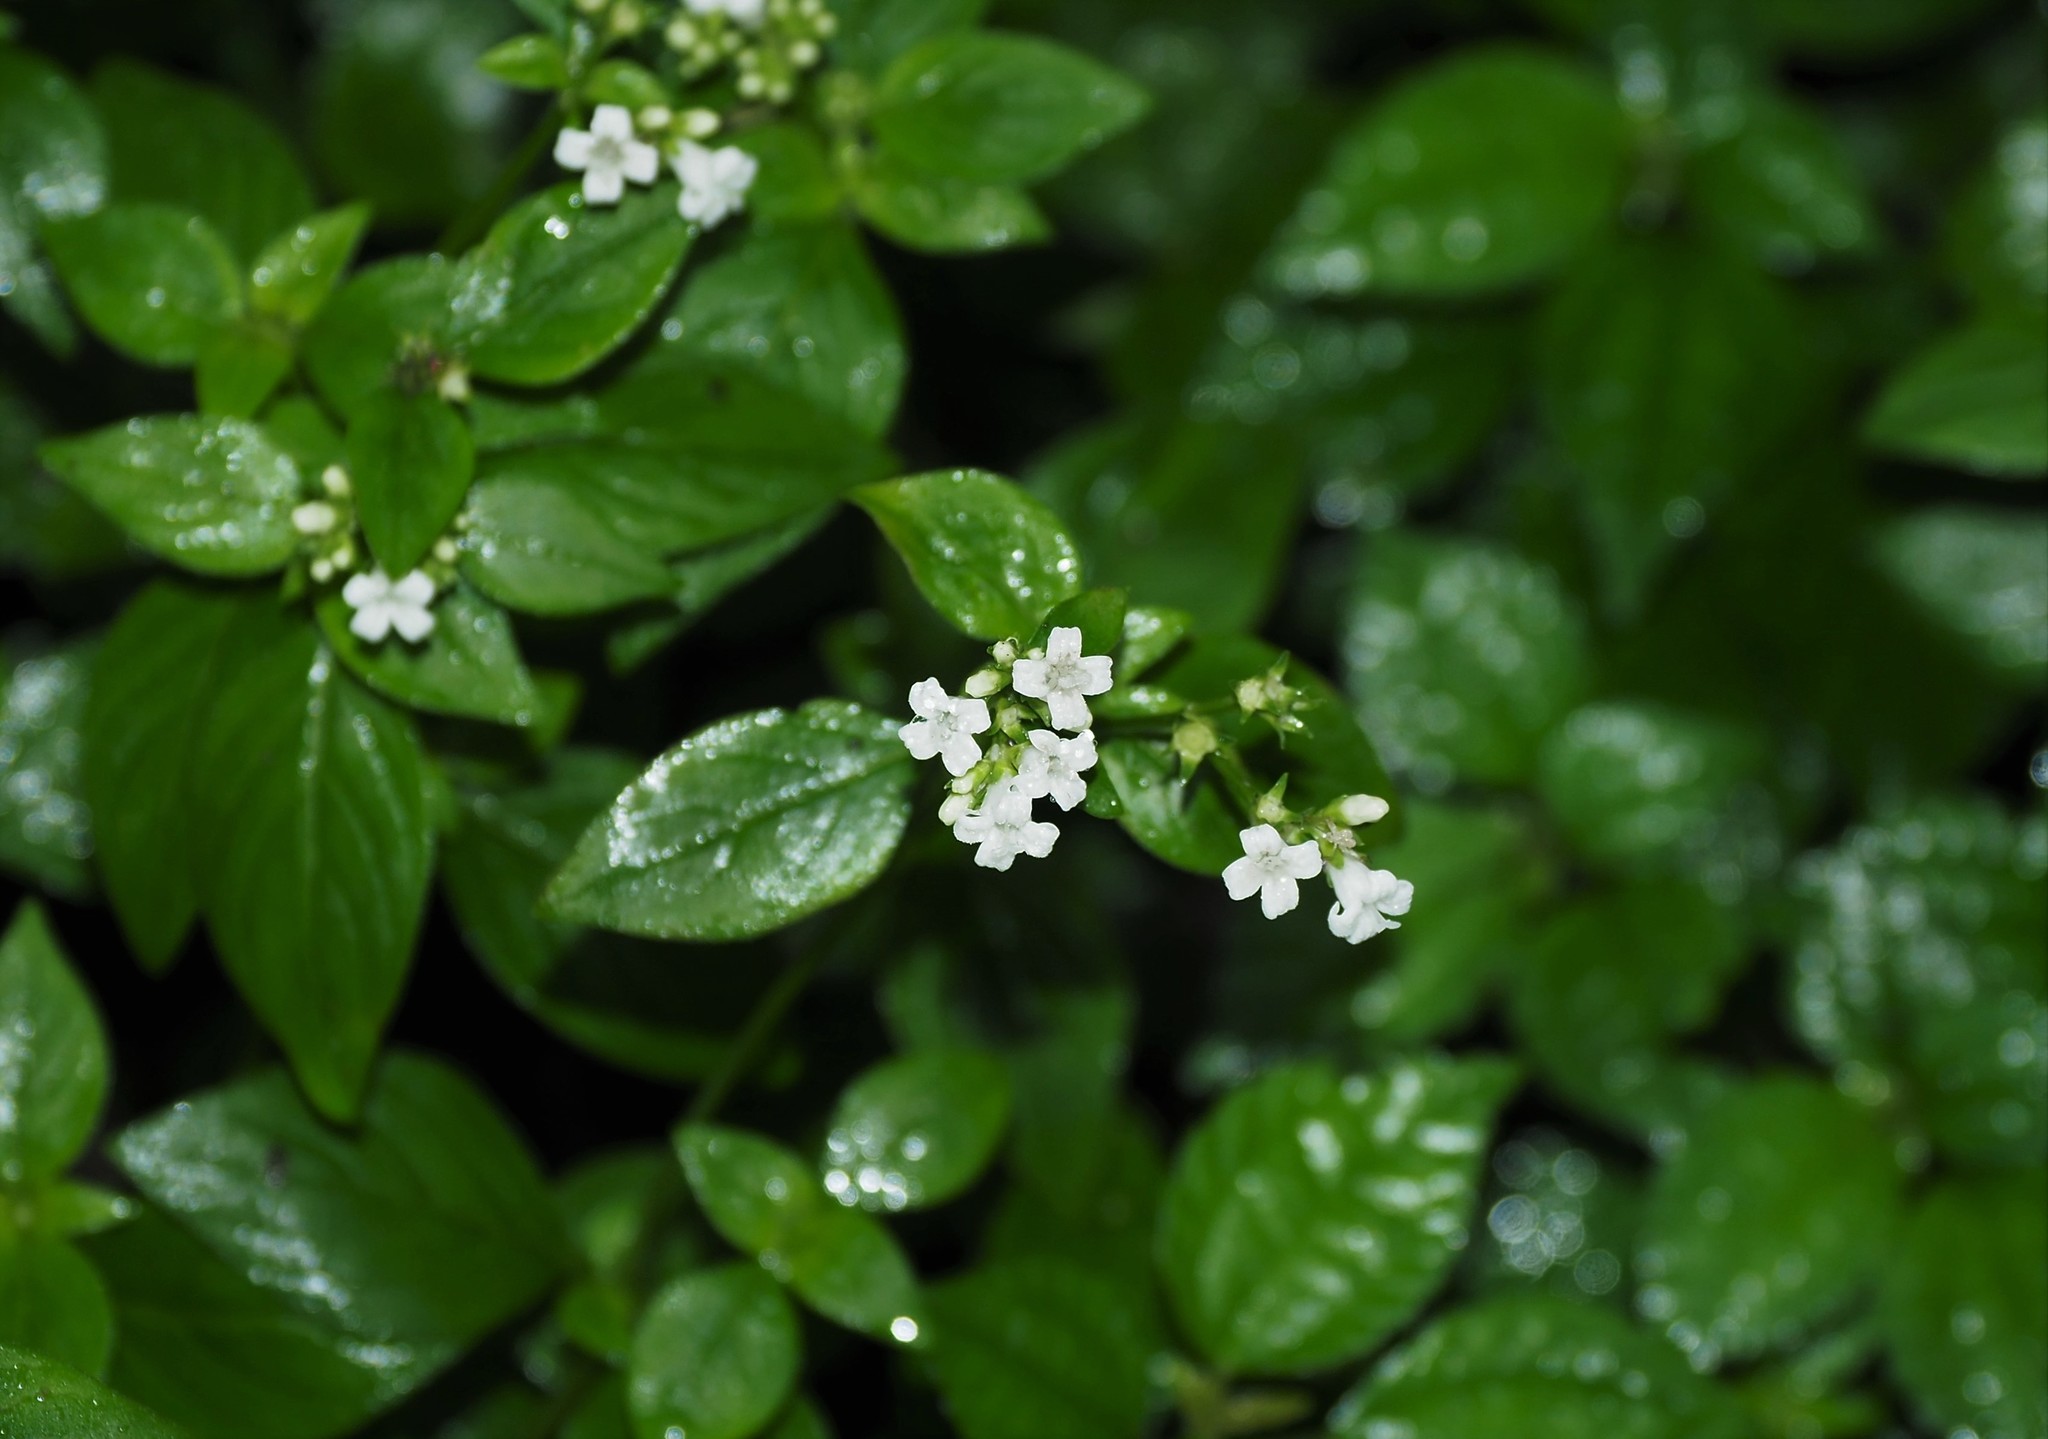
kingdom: Plantae
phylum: Tracheophyta
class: Magnoliopsida
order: Gentianales
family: Rubiaceae
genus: Neanotis
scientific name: Neanotis formosana
